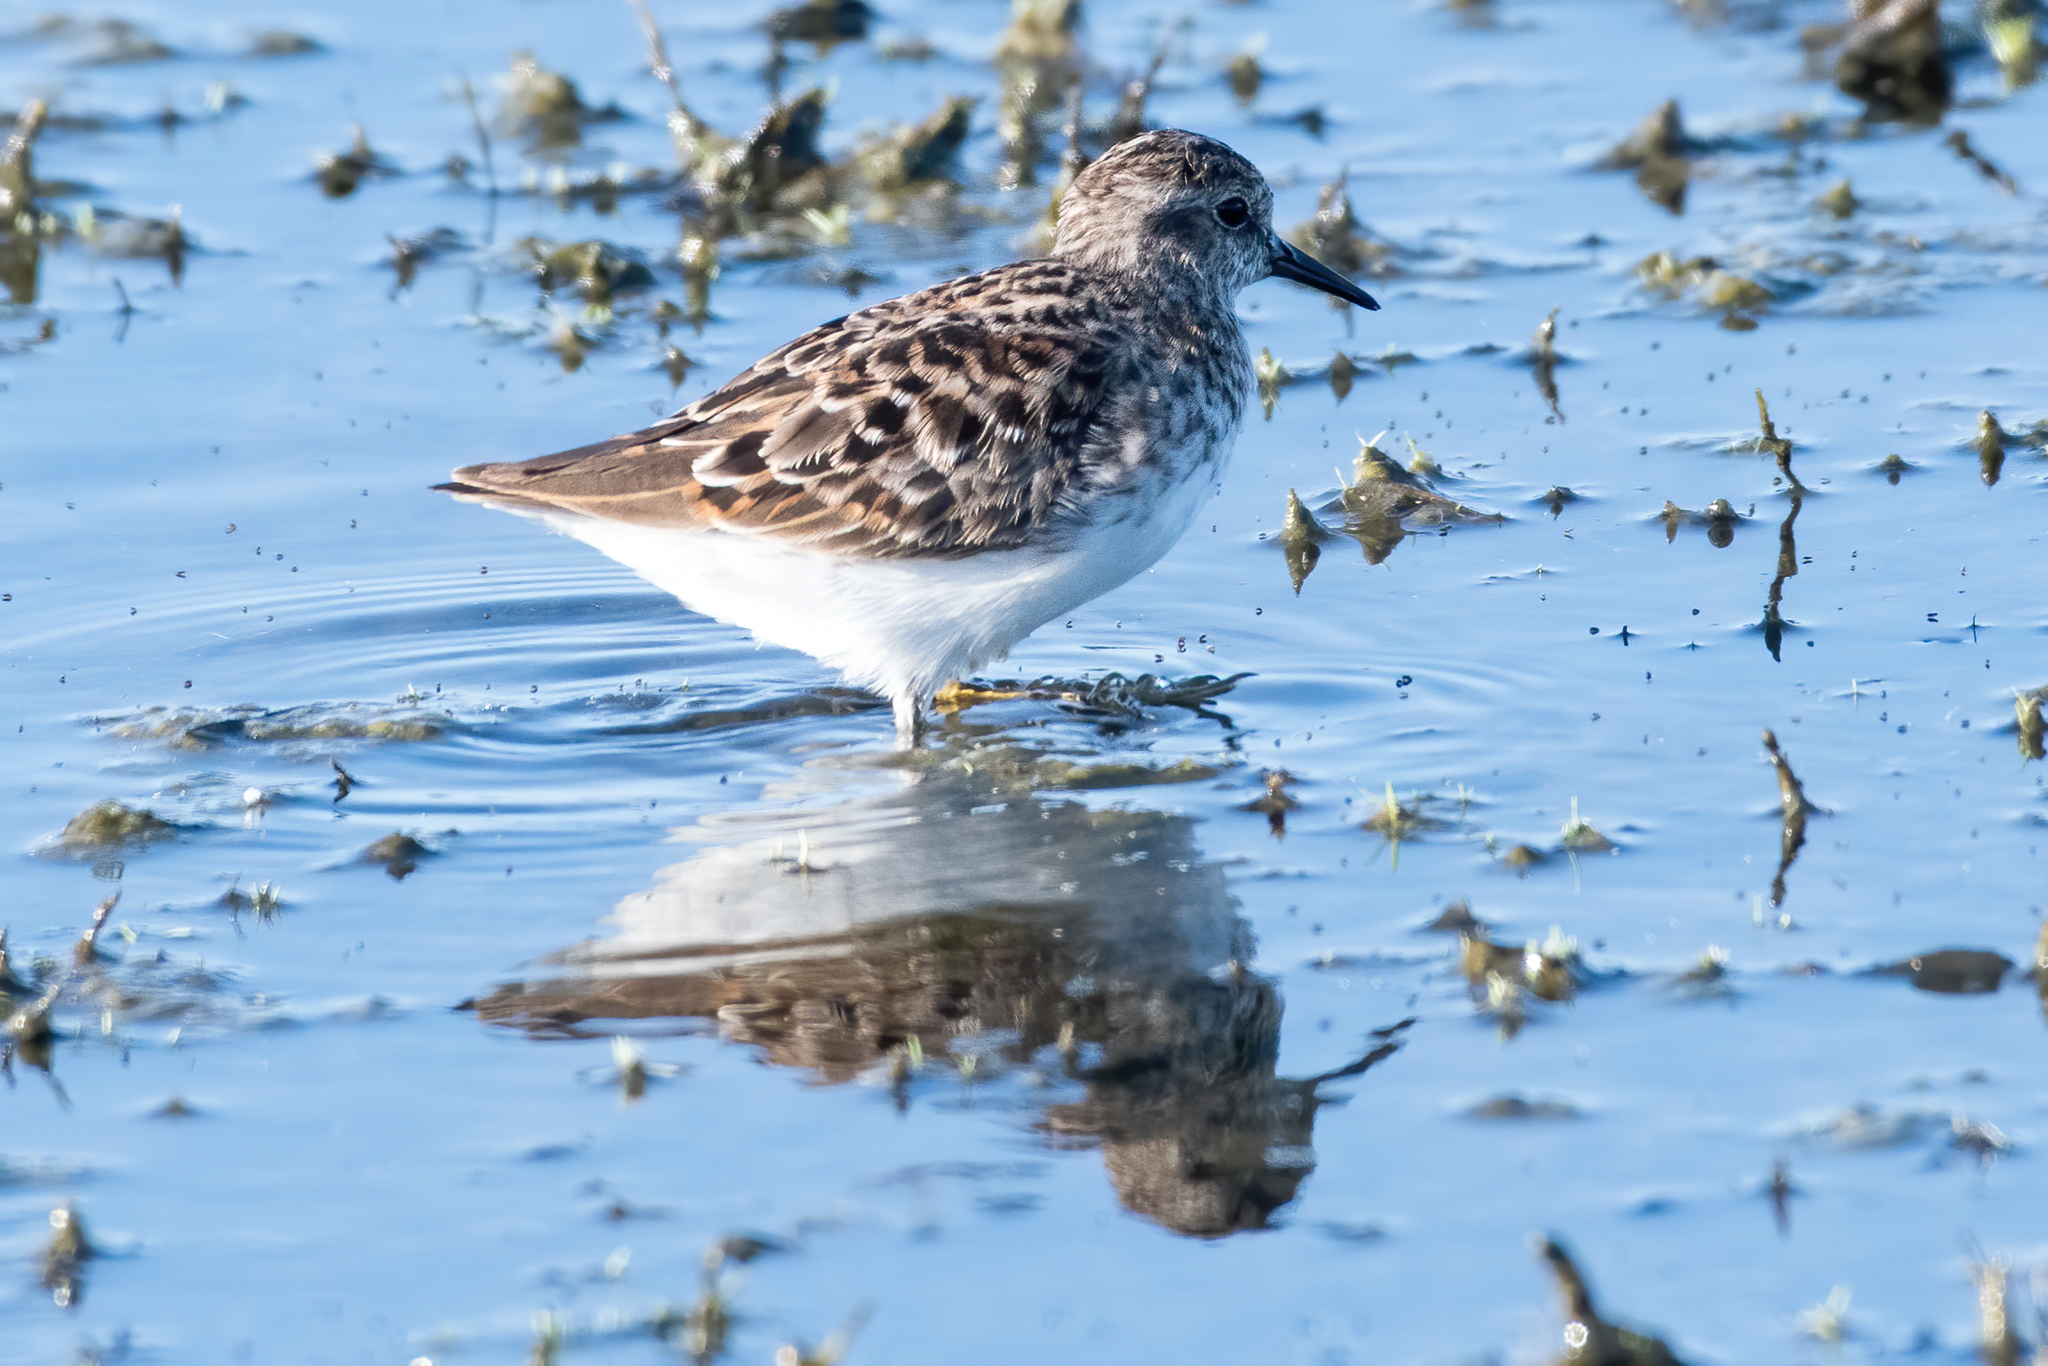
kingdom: Animalia
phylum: Chordata
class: Aves
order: Charadriiformes
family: Scolopacidae
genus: Calidris
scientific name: Calidris minutilla
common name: Least sandpiper
